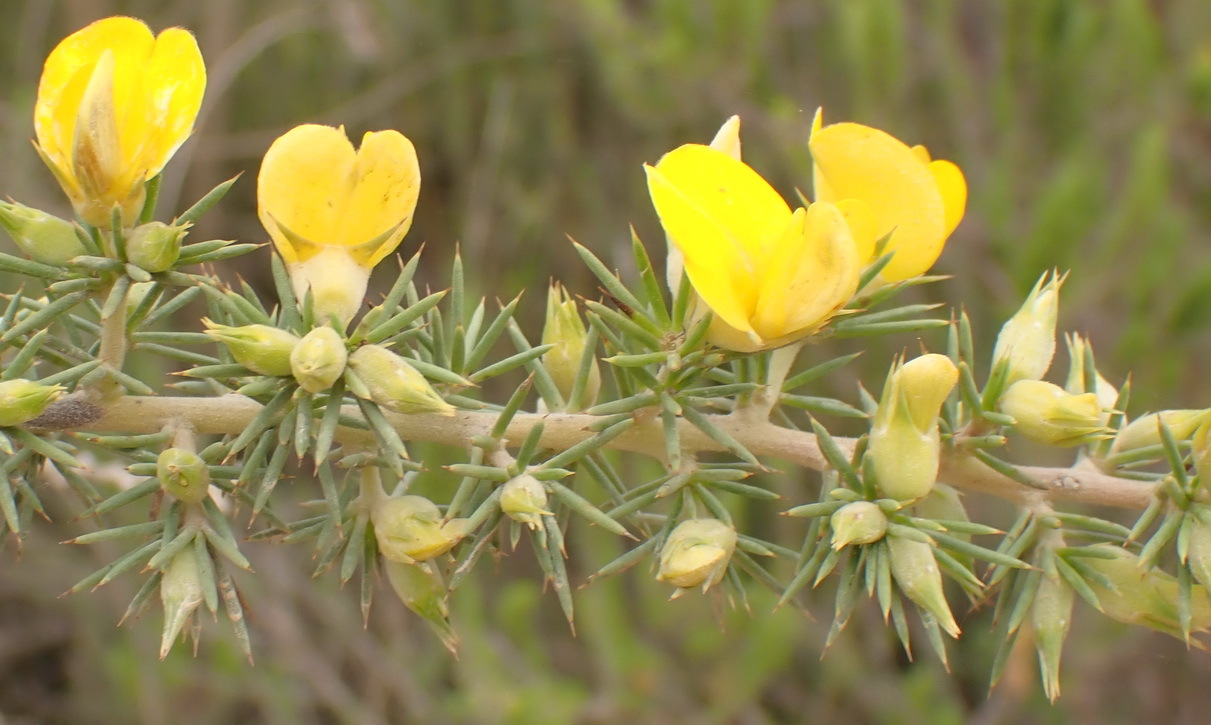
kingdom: Plantae
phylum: Tracheophyta
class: Magnoliopsida
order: Fabales
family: Fabaceae
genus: Aspalathus
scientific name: Aspalathus kougaensis
